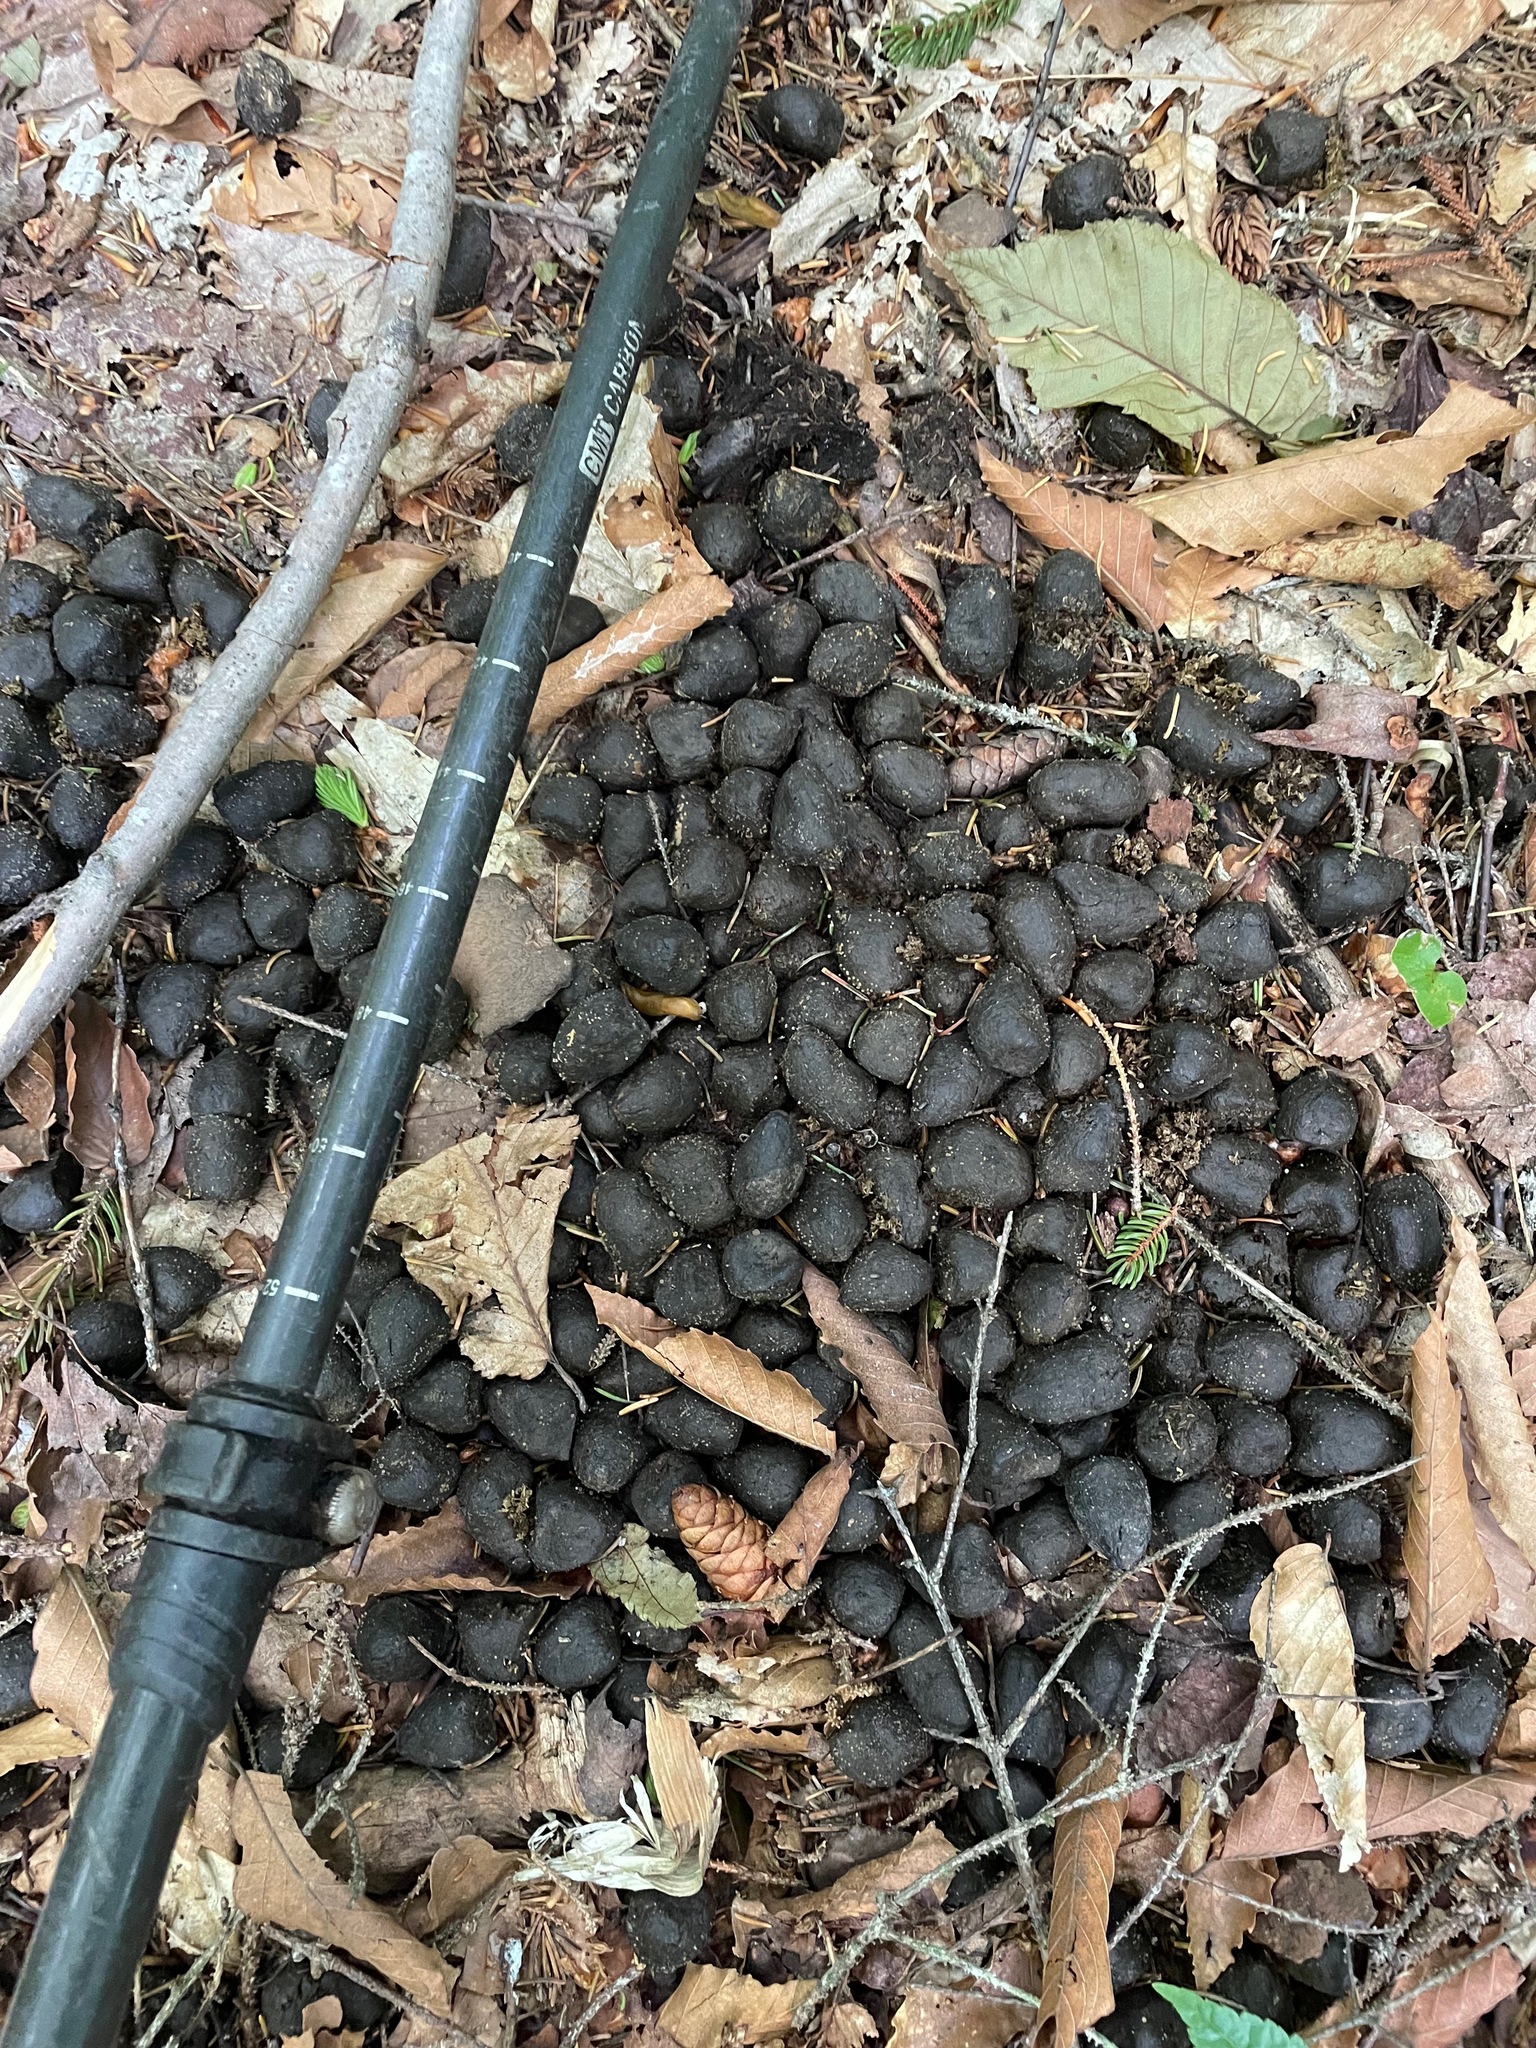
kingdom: Animalia
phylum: Chordata
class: Mammalia
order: Artiodactyla
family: Cervidae
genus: Alces
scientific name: Alces alces
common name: Moose
